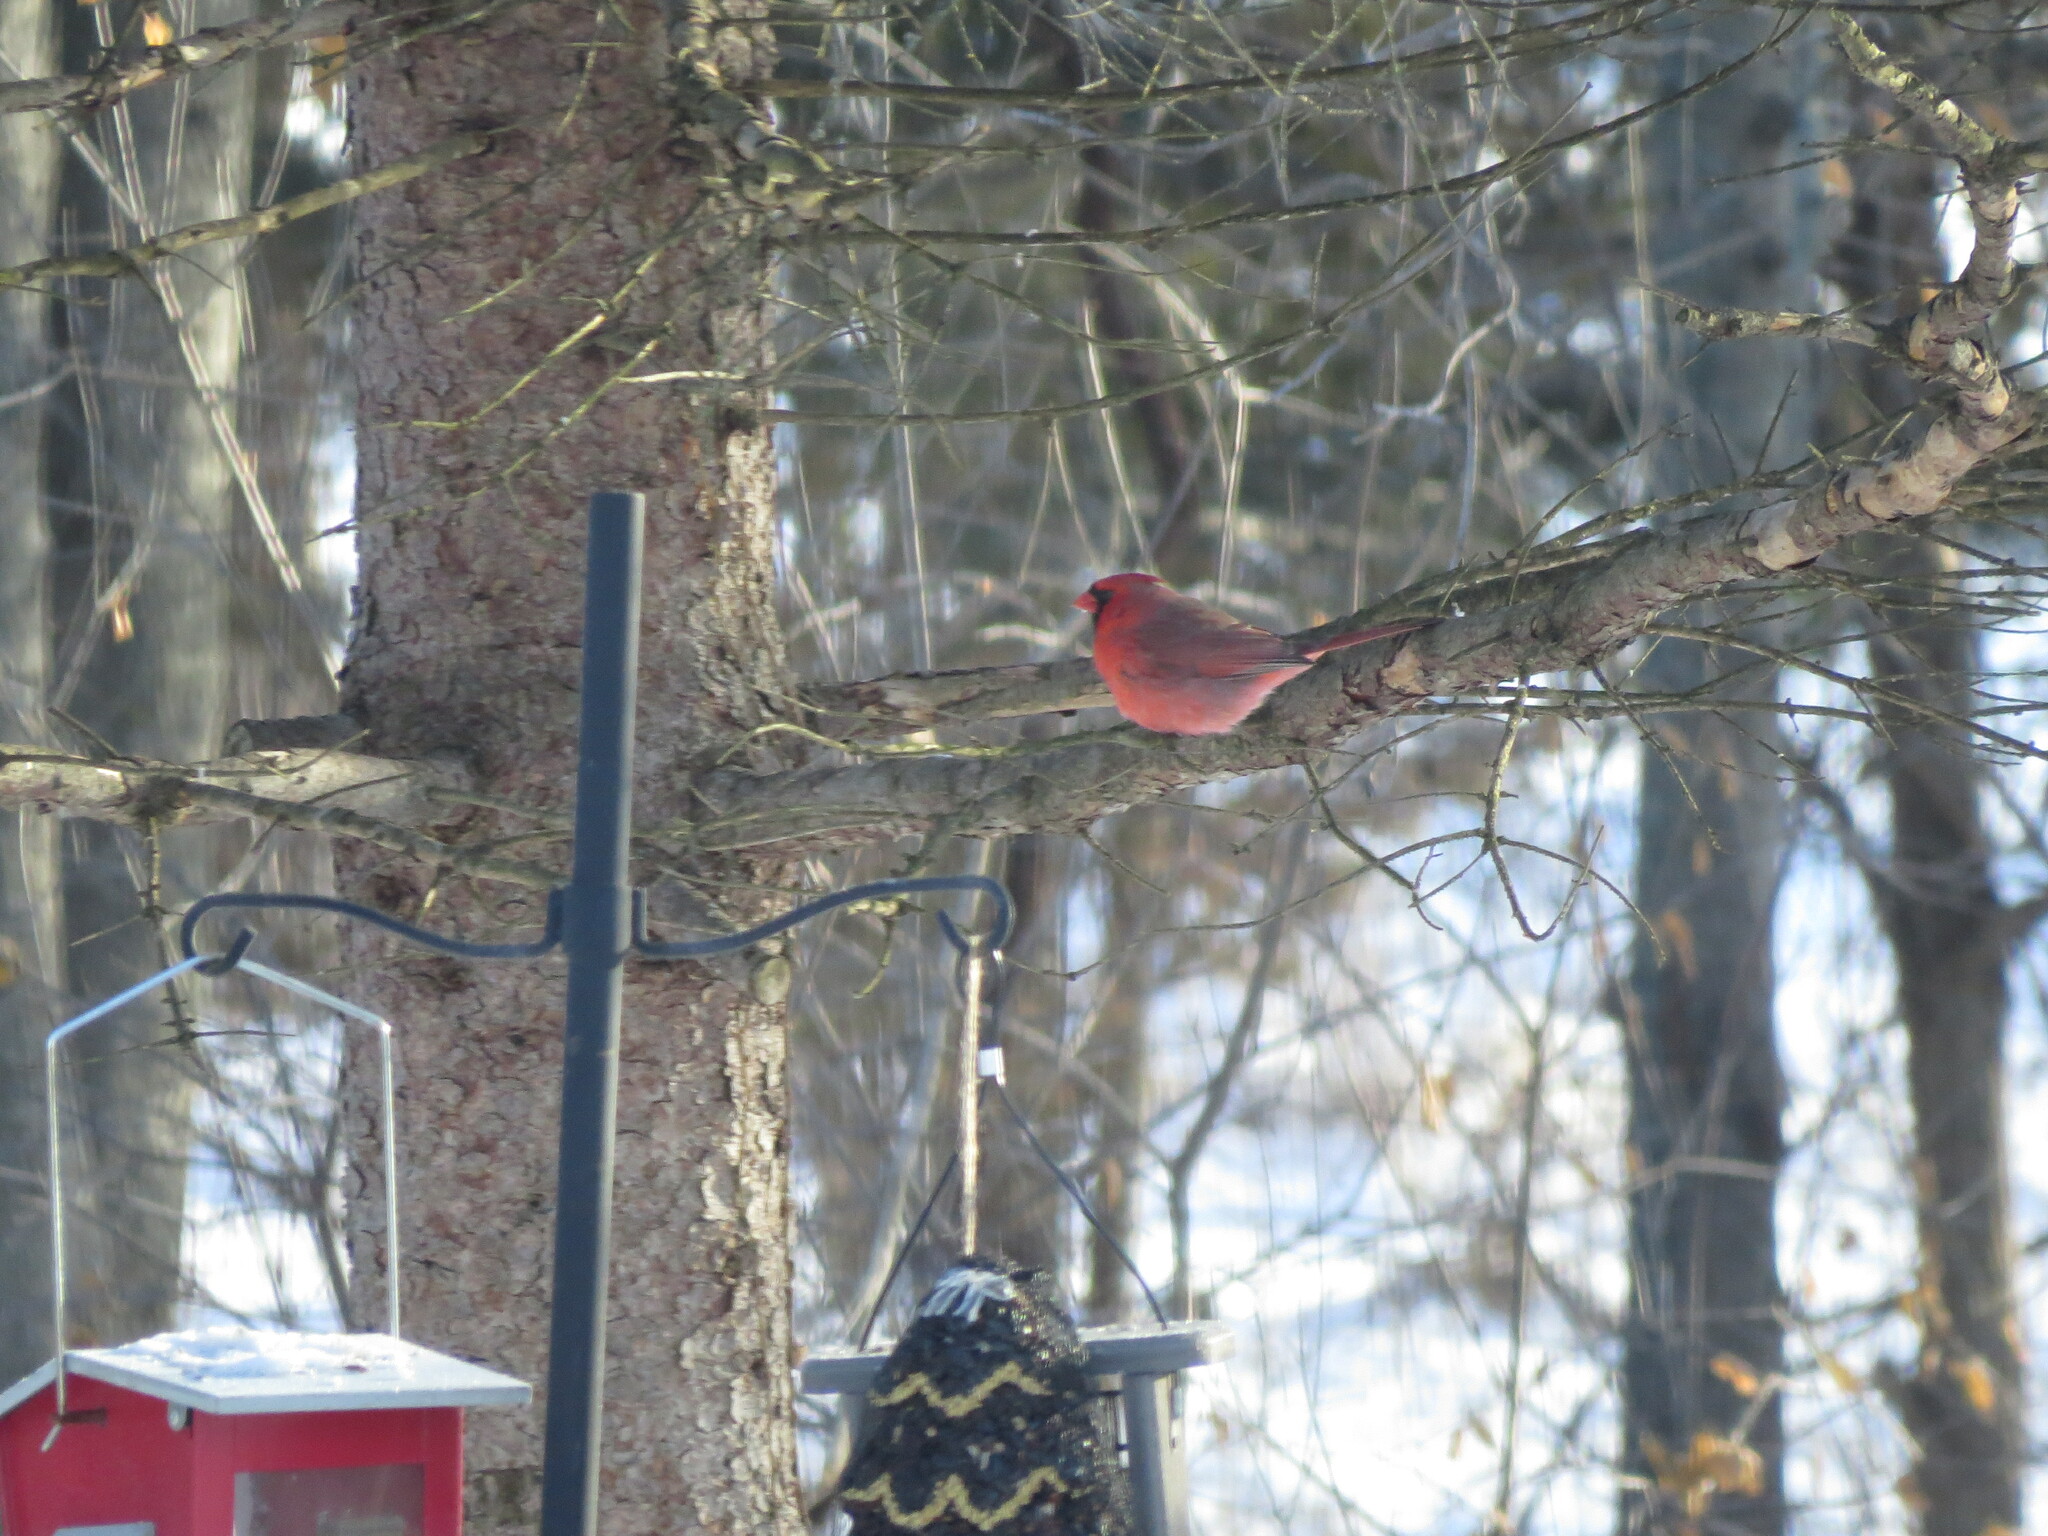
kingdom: Animalia
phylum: Chordata
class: Aves
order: Passeriformes
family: Cardinalidae
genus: Cardinalis
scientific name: Cardinalis cardinalis
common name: Northern cardinal
